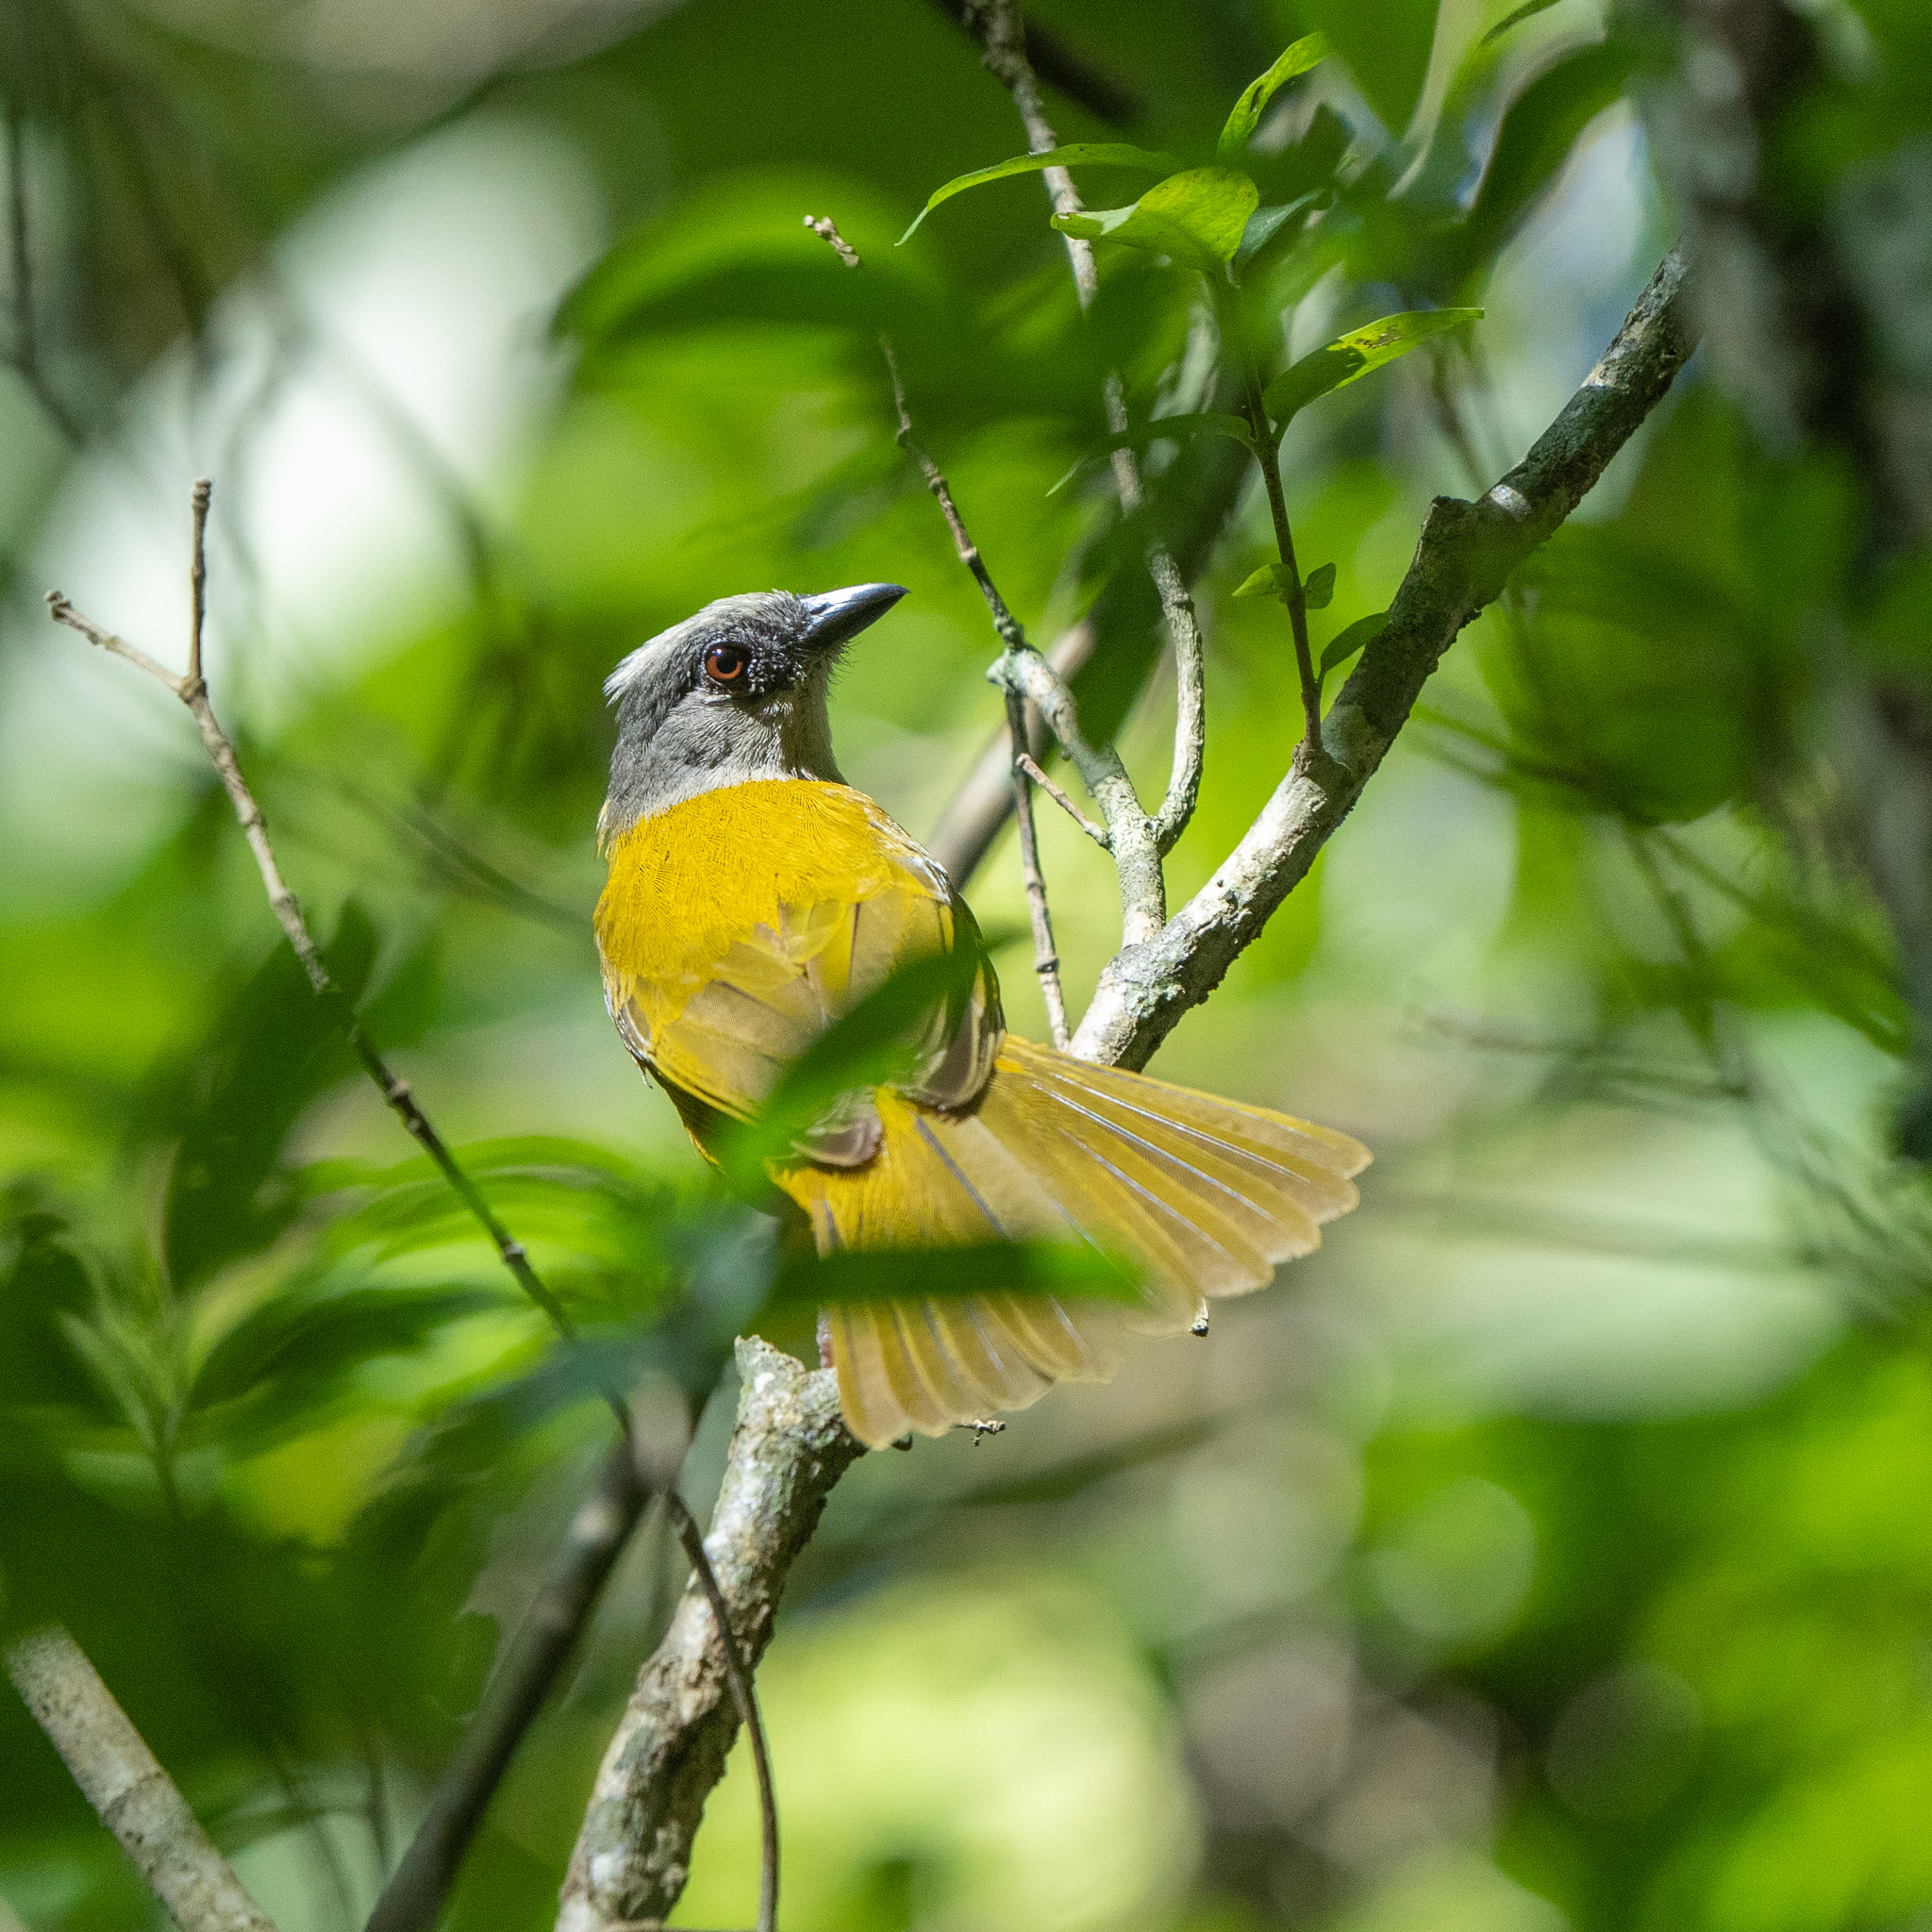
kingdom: Animalia
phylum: Chordata
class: Aves
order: Passeriformes
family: Thraupidae
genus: Eucometis
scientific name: Eucometis penicillata
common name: Grey-headed tanager
